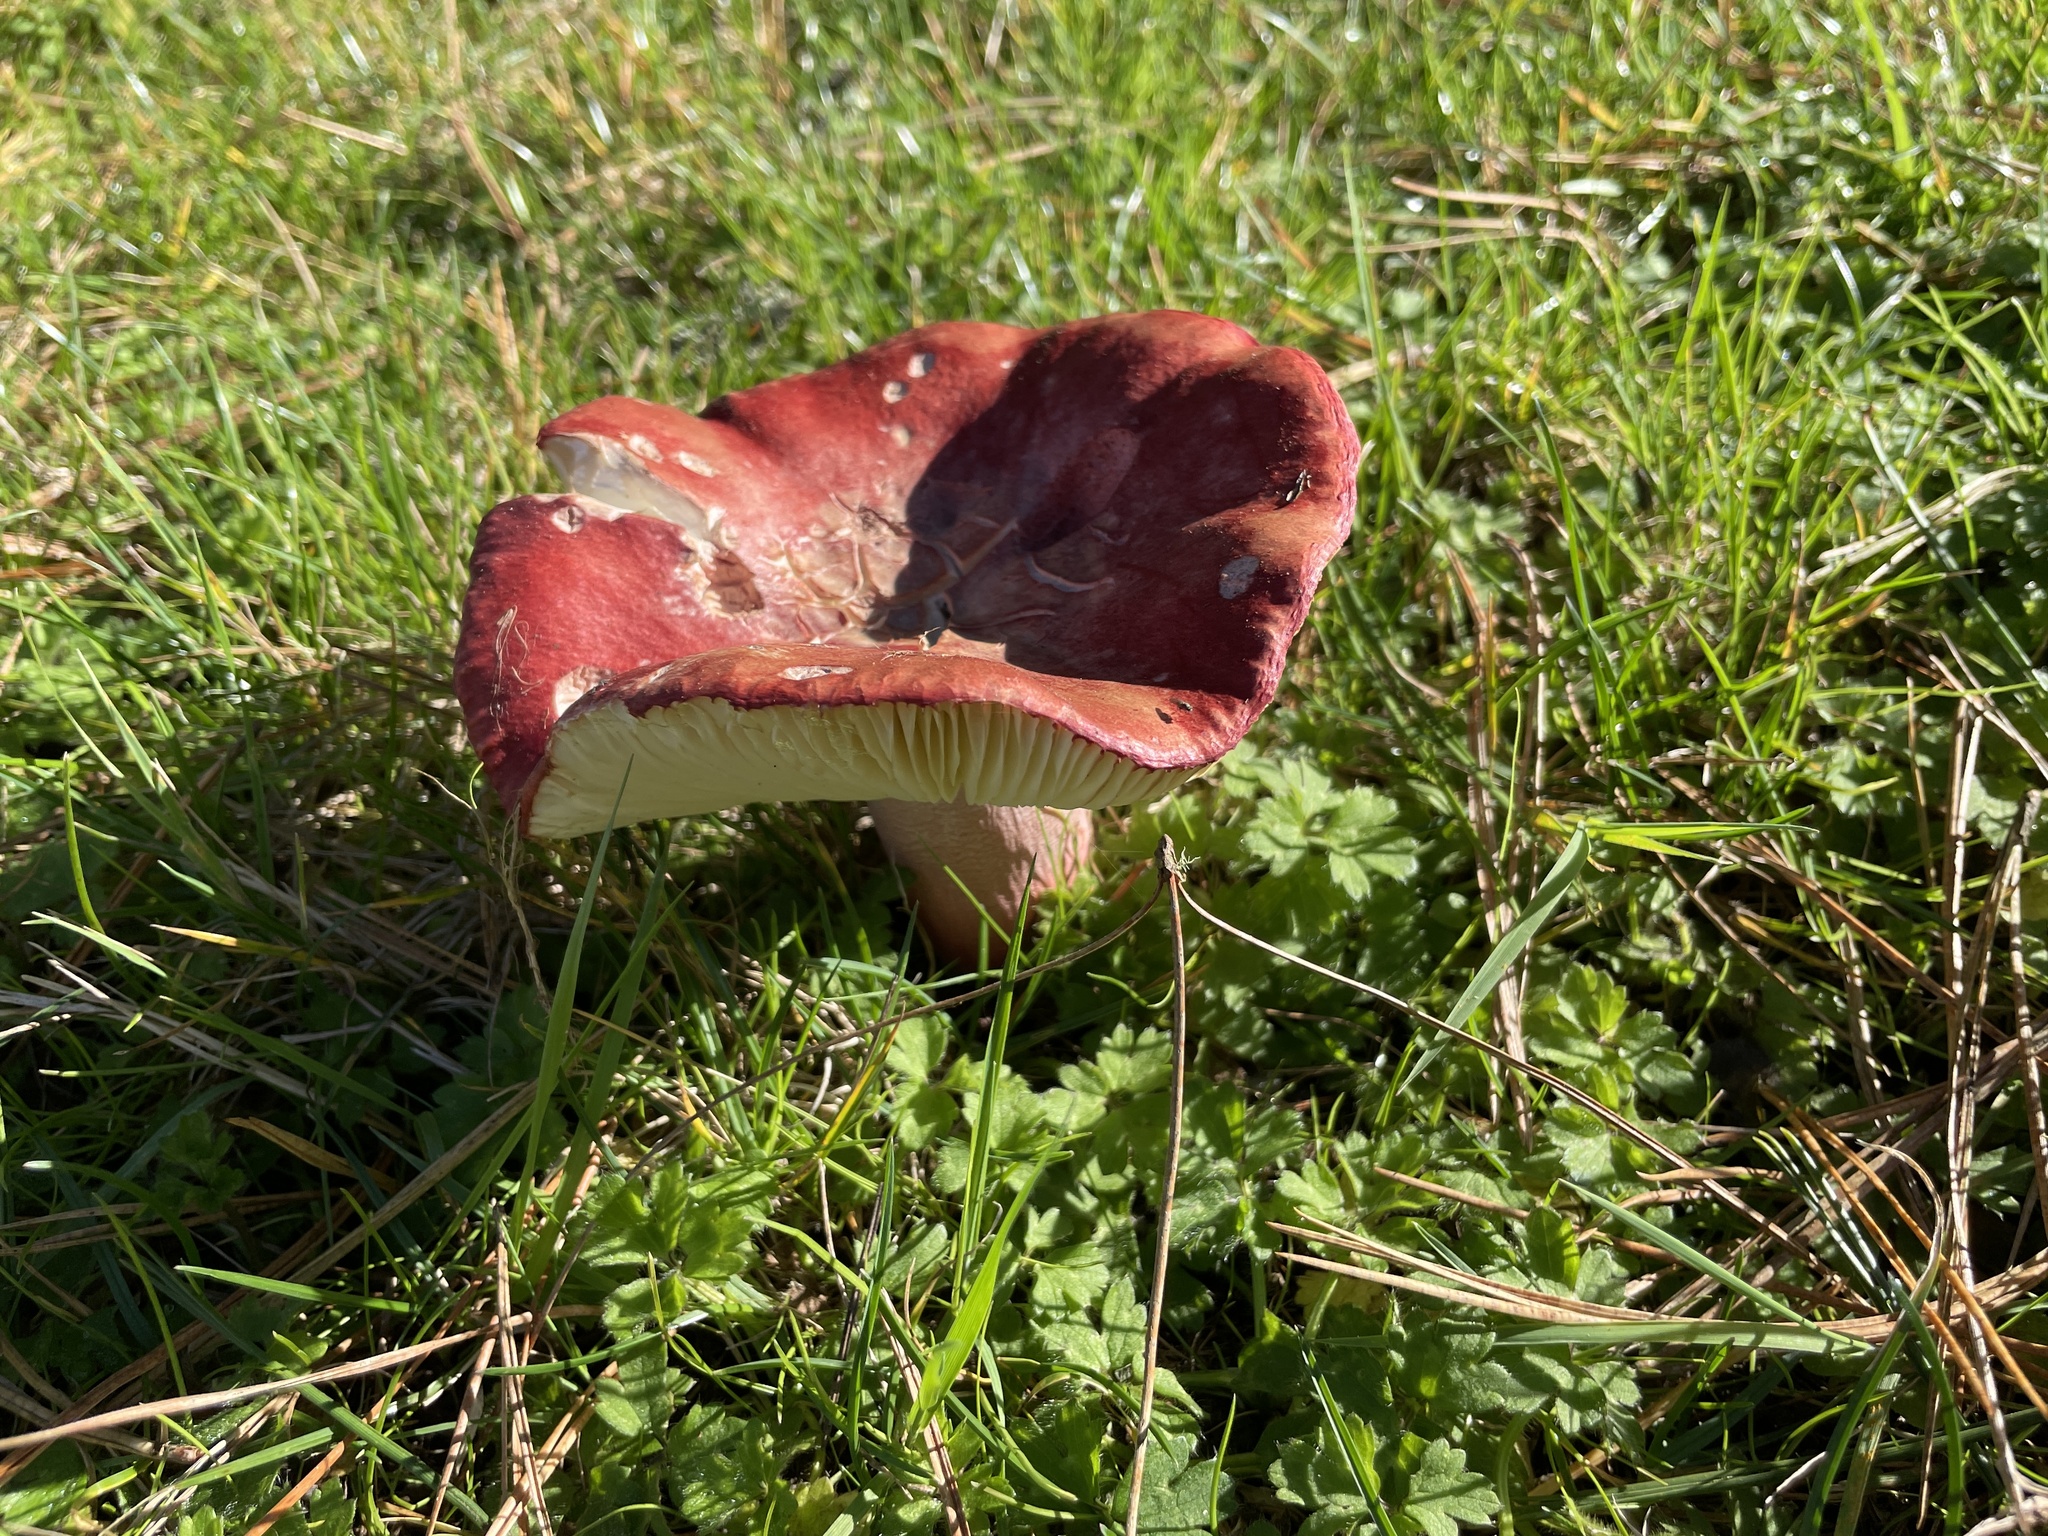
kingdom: Fungi
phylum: Basidiomycota
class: Agaricomycetes
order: Russulales
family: Russulaceae
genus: Russula
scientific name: Russula rhodocephala
